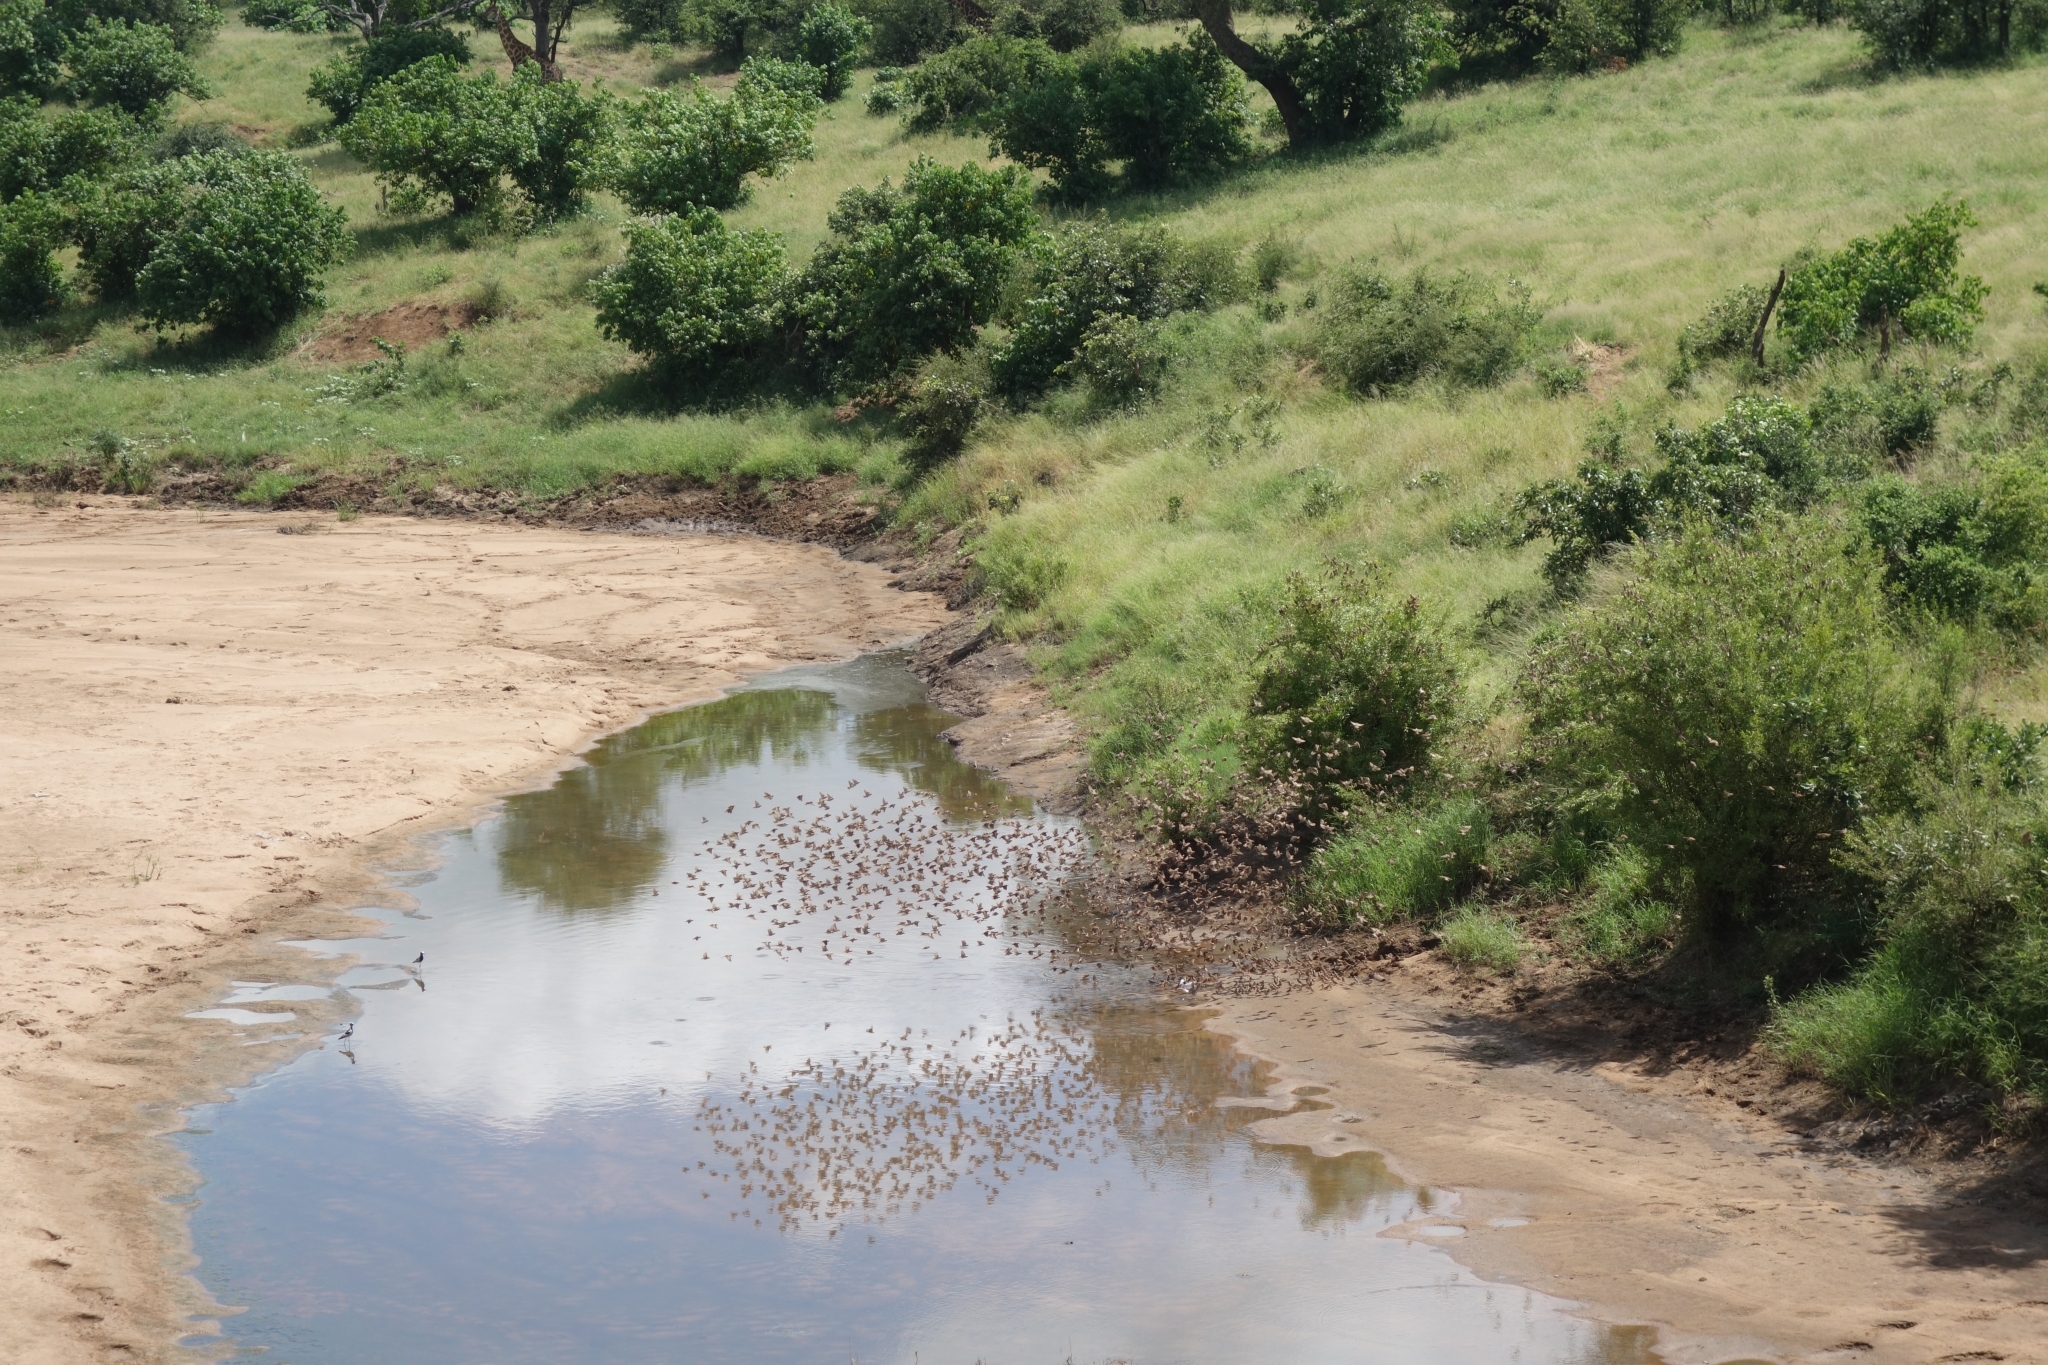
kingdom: Animalia
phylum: Chordata
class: Aves
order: Passeriformes
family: Ploceidae
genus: Quelea
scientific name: Quelea quelea
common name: Red-billed quelea
